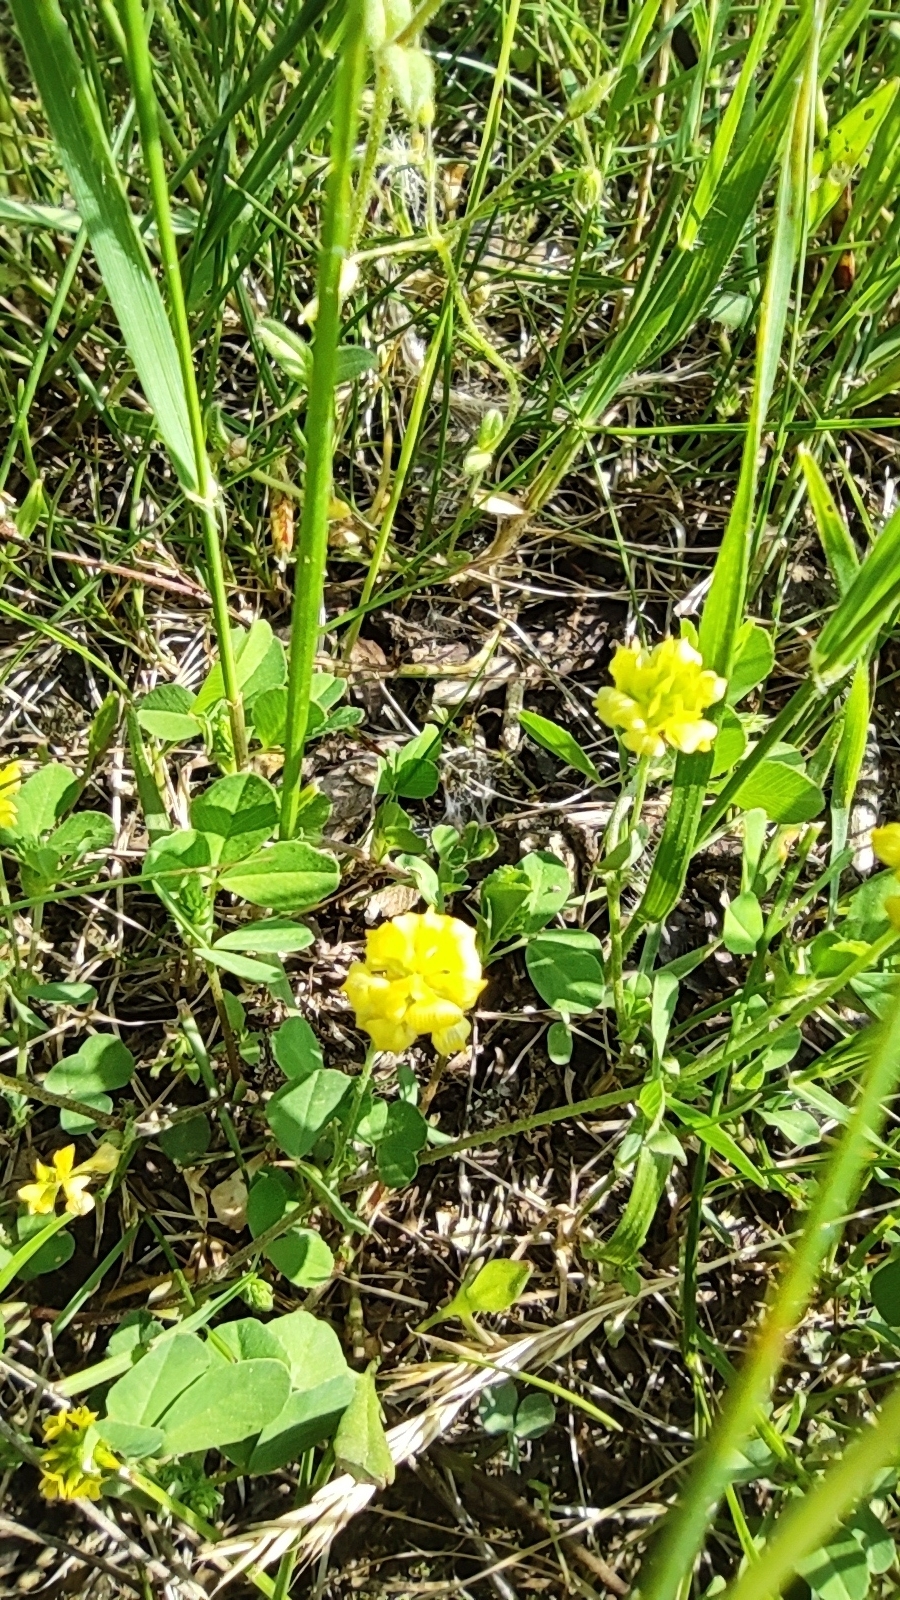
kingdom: Plantae
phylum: Tracheophyta
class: Magnoliopsida
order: Fabales
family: Fabaceae
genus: Trifolium
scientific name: Trifolium campestre
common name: Field clover
